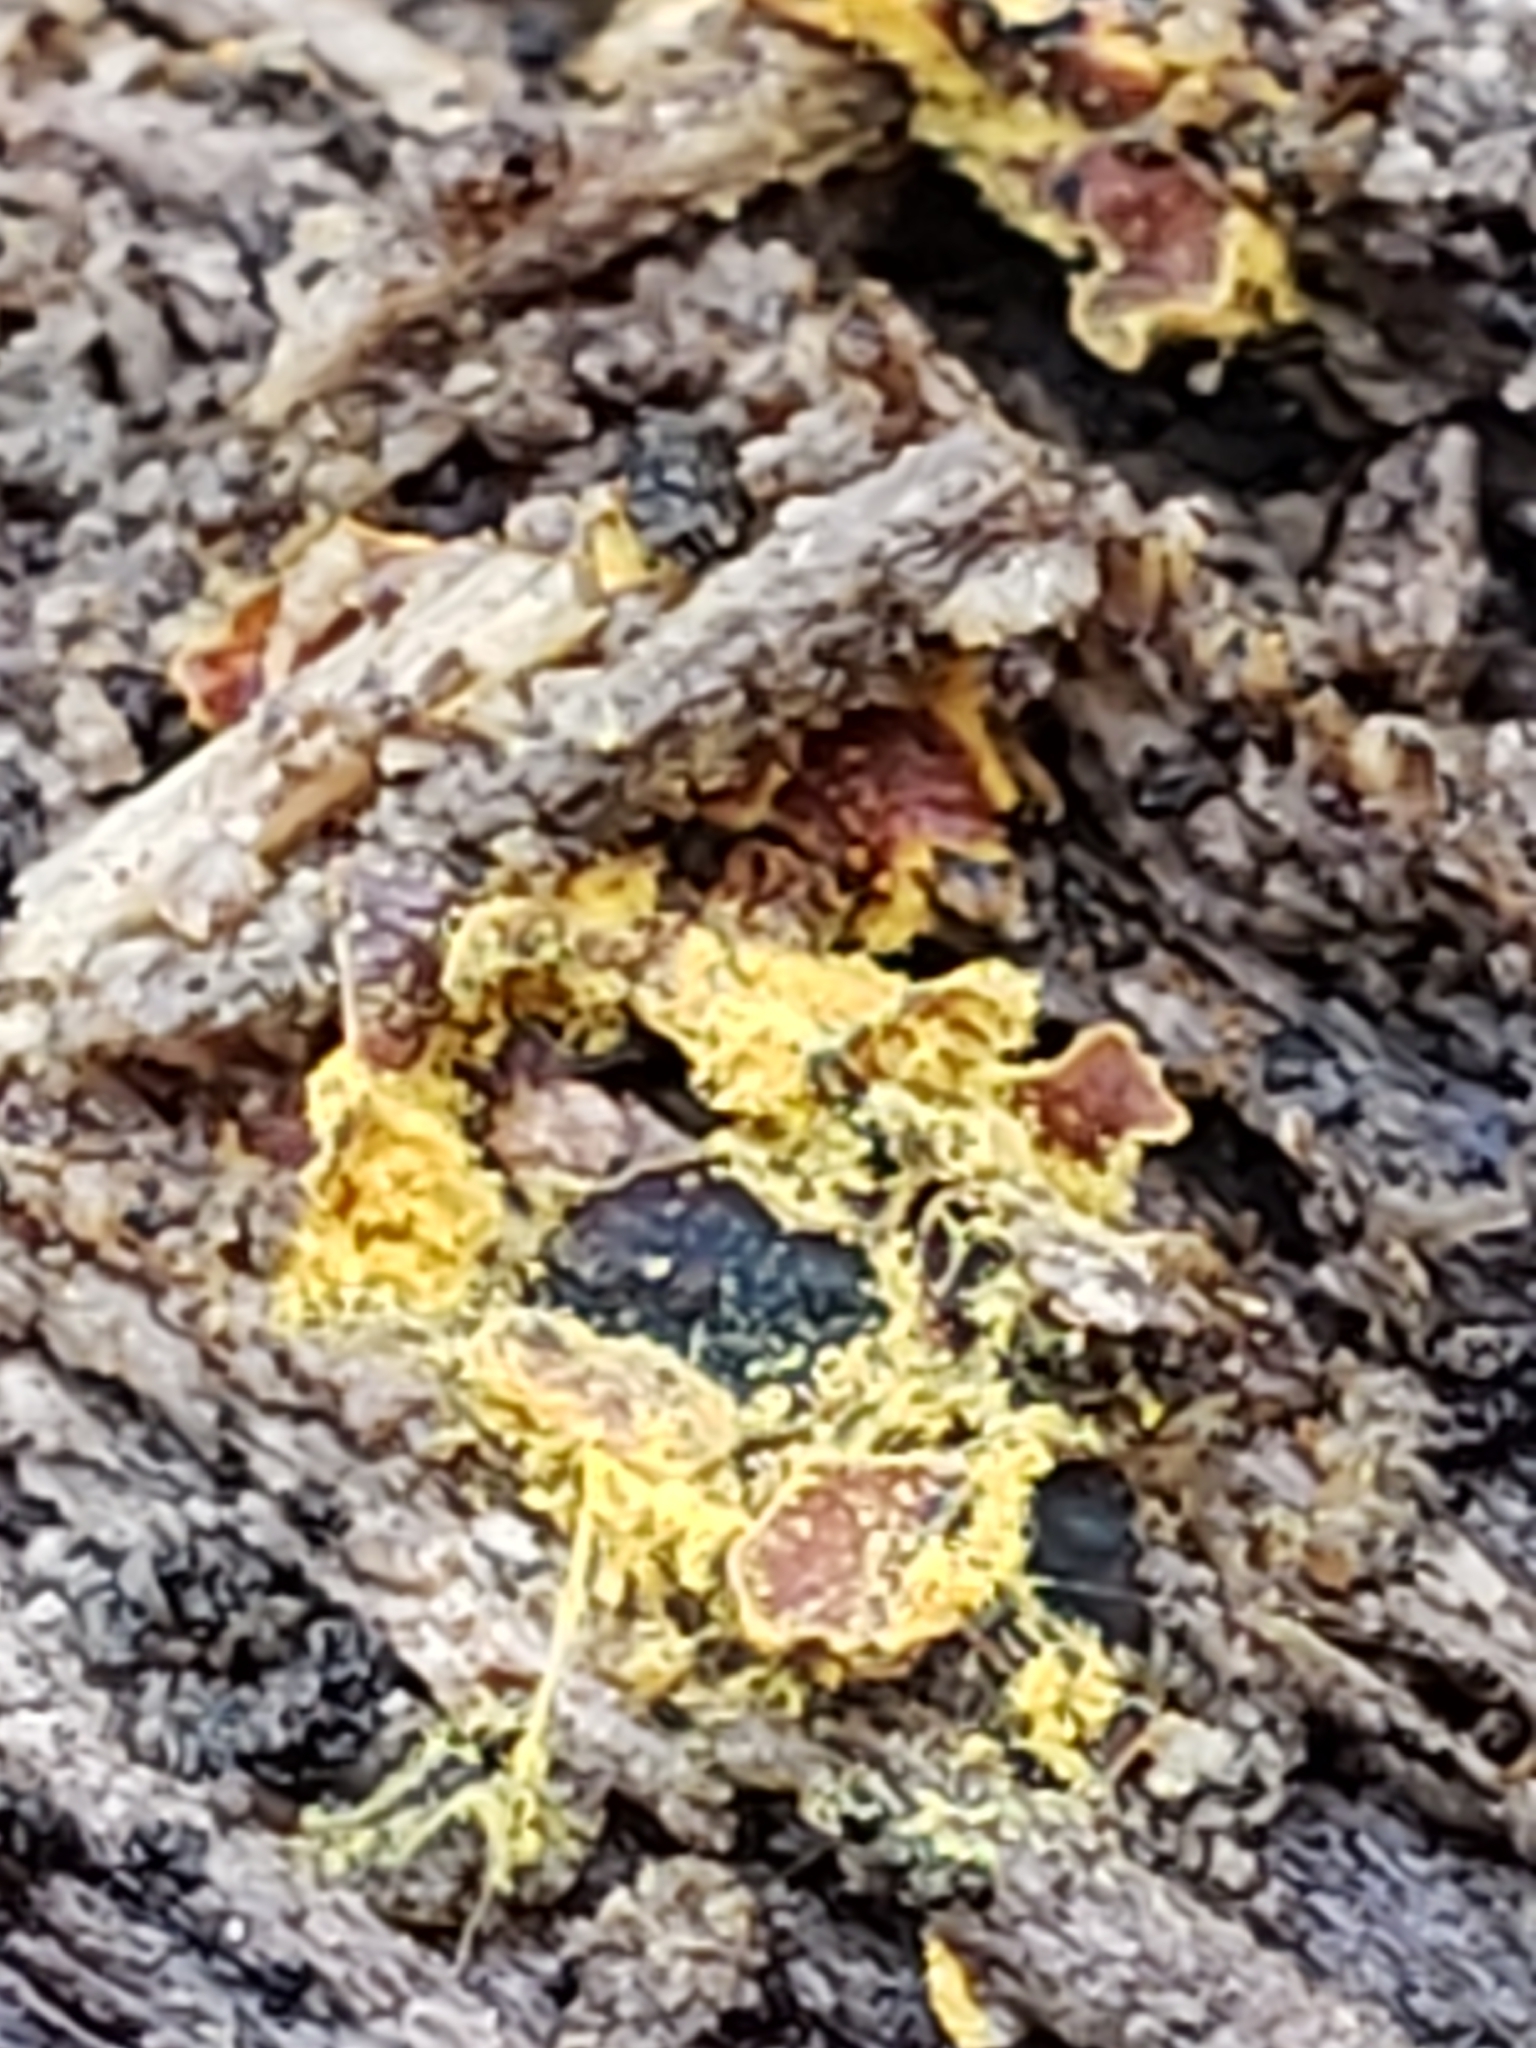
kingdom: Protozoa
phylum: Mycetozoa
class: Myxomycetes
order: Trichiales
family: Trichiaceae
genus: Perichaena
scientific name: Perichaena depressa
